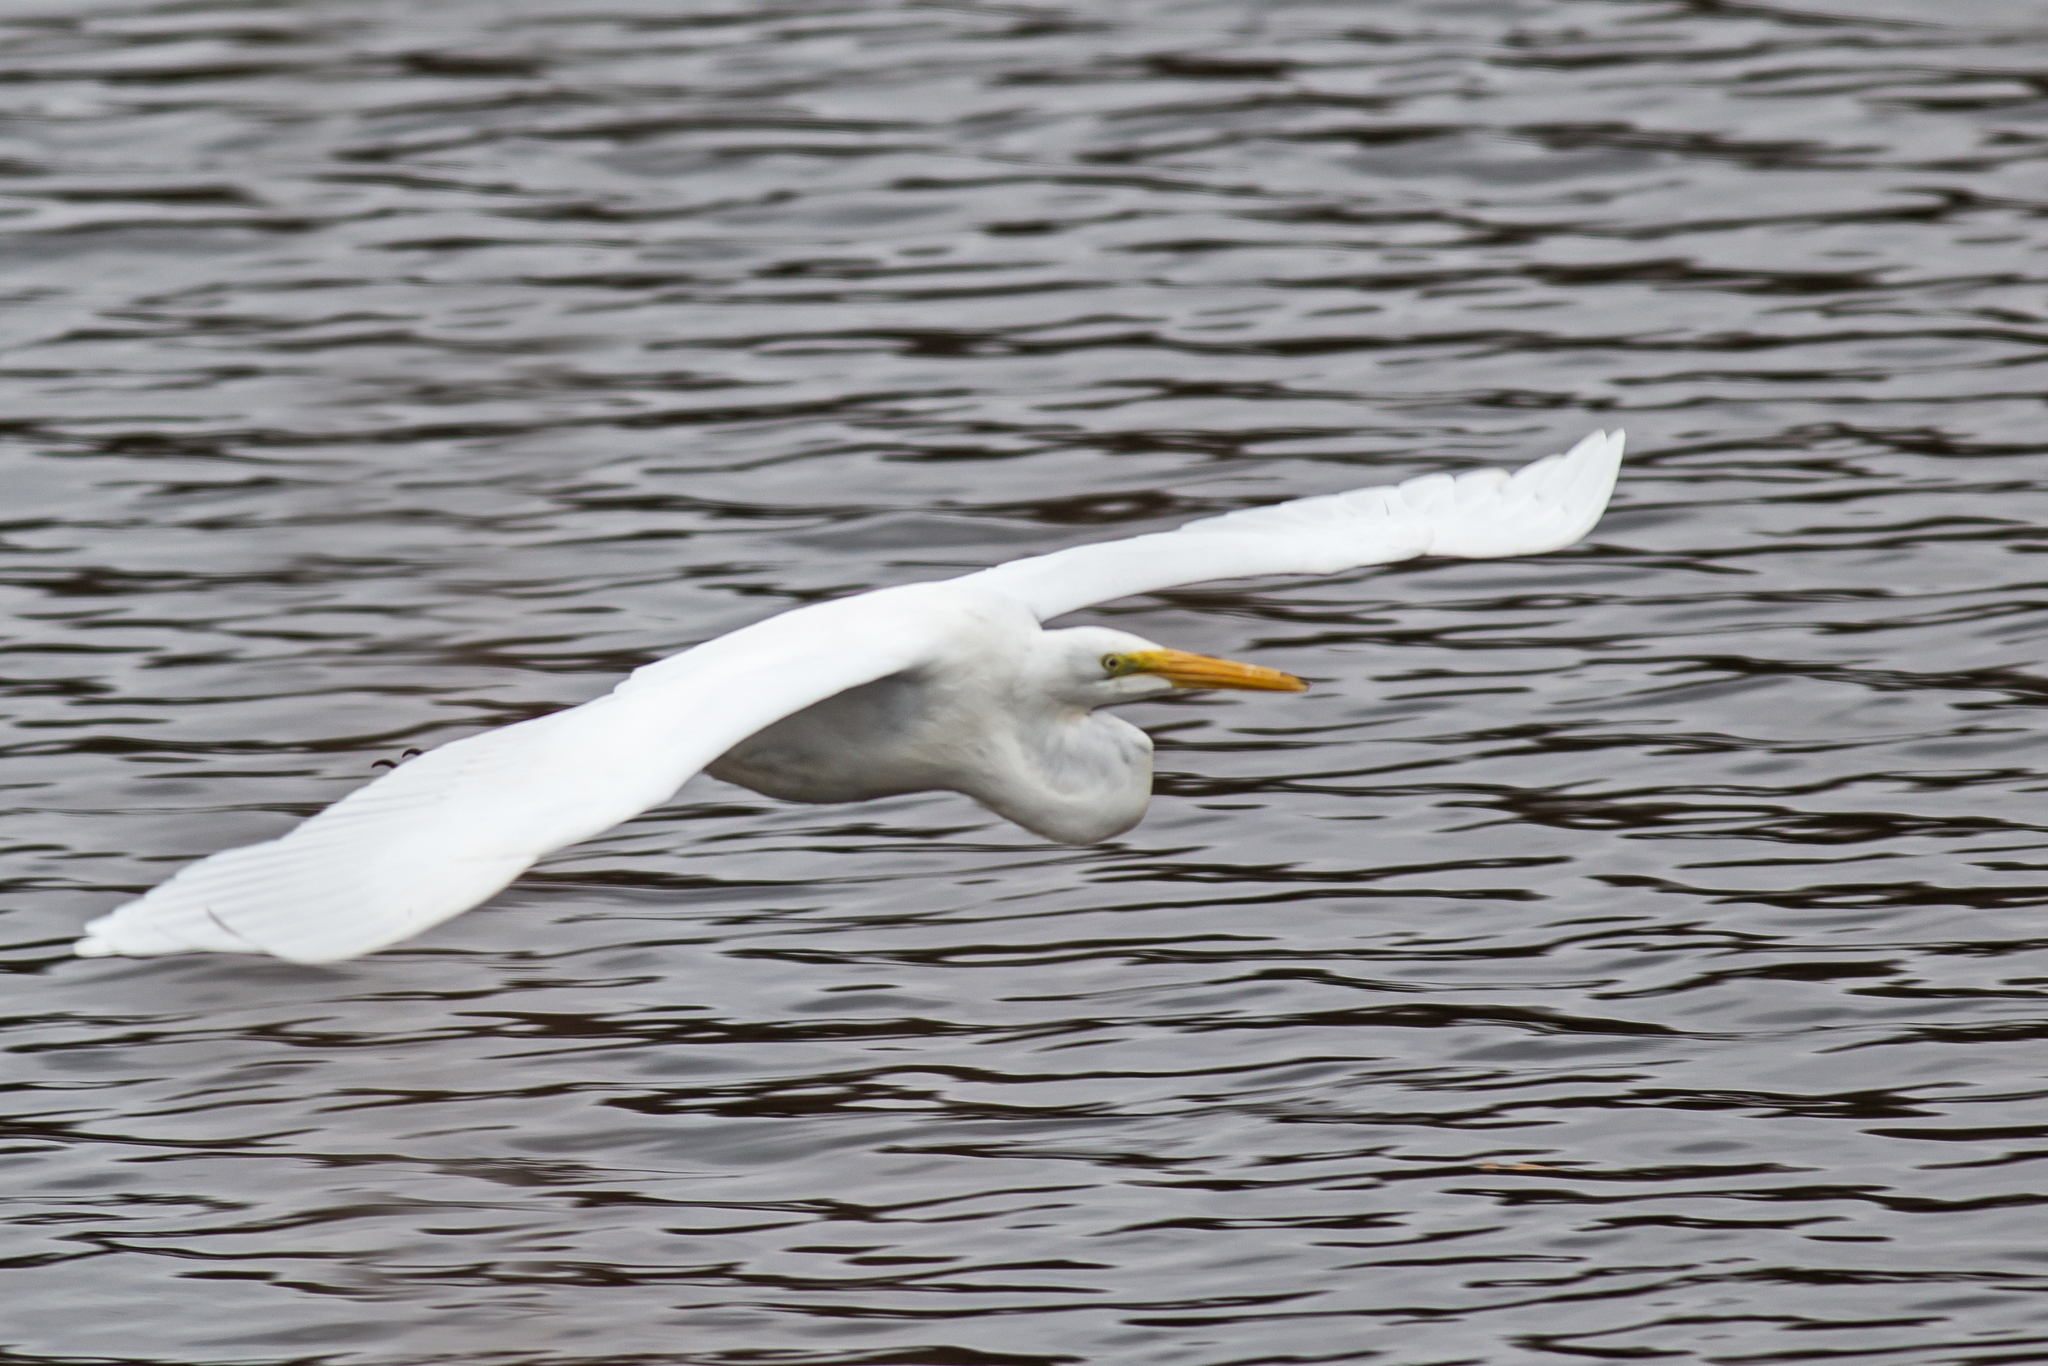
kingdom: Animalia
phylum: Chordata
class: Aves
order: Pelecaniformes
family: Ardeidae
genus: Ardea
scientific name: Ardea alba
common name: Great egret
